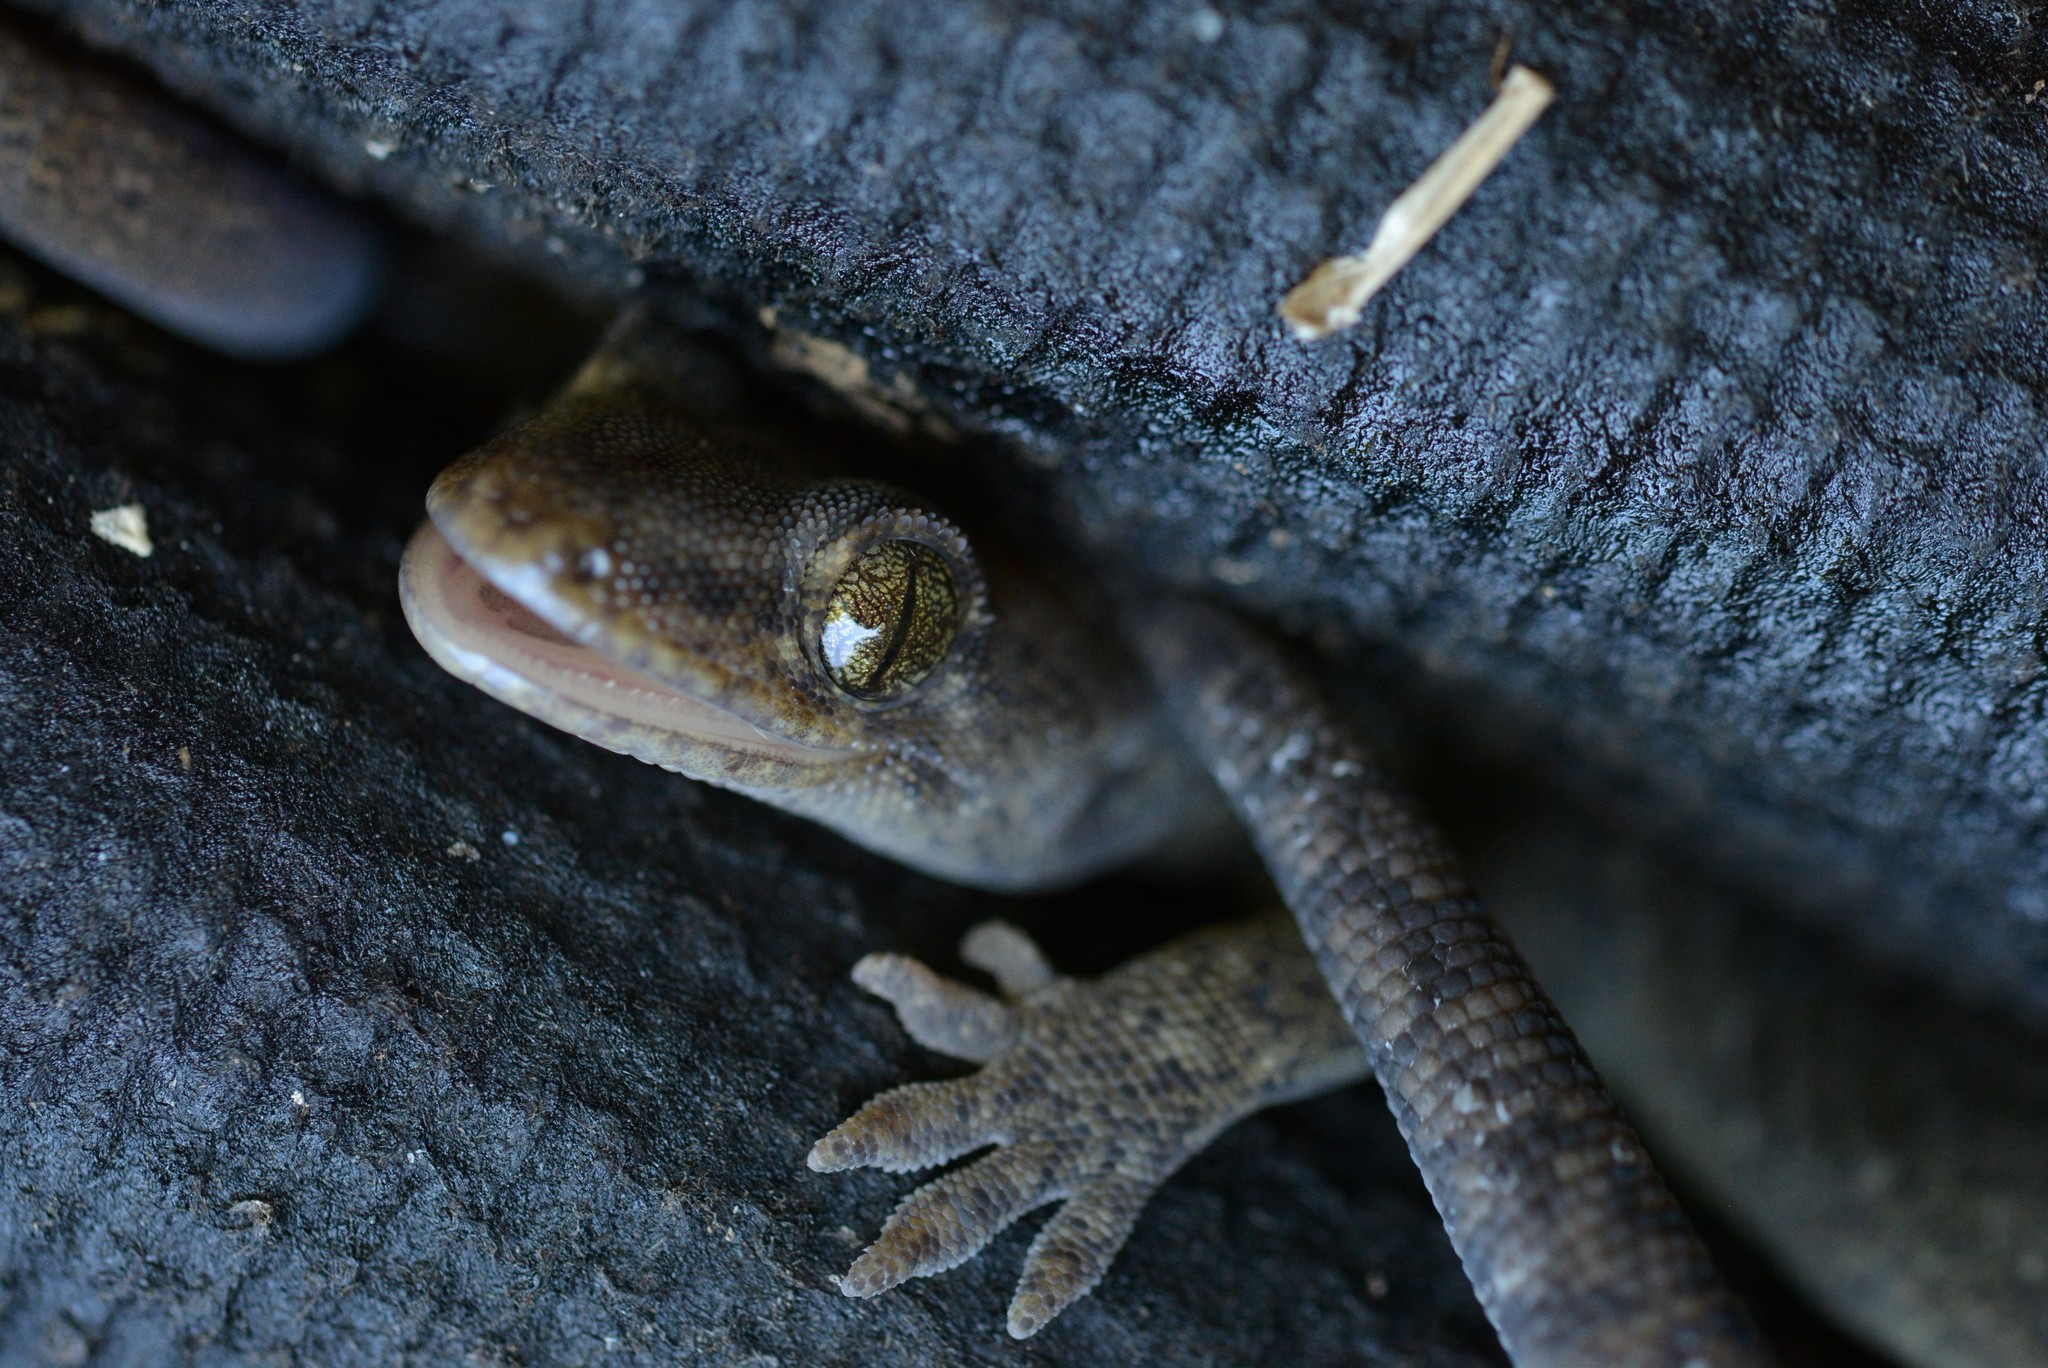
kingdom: Animalia
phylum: Chordata
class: Squamata
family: Diplodactylidae
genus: Woodworthia
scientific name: Woodworthia maculata
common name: Raukawa gecko
